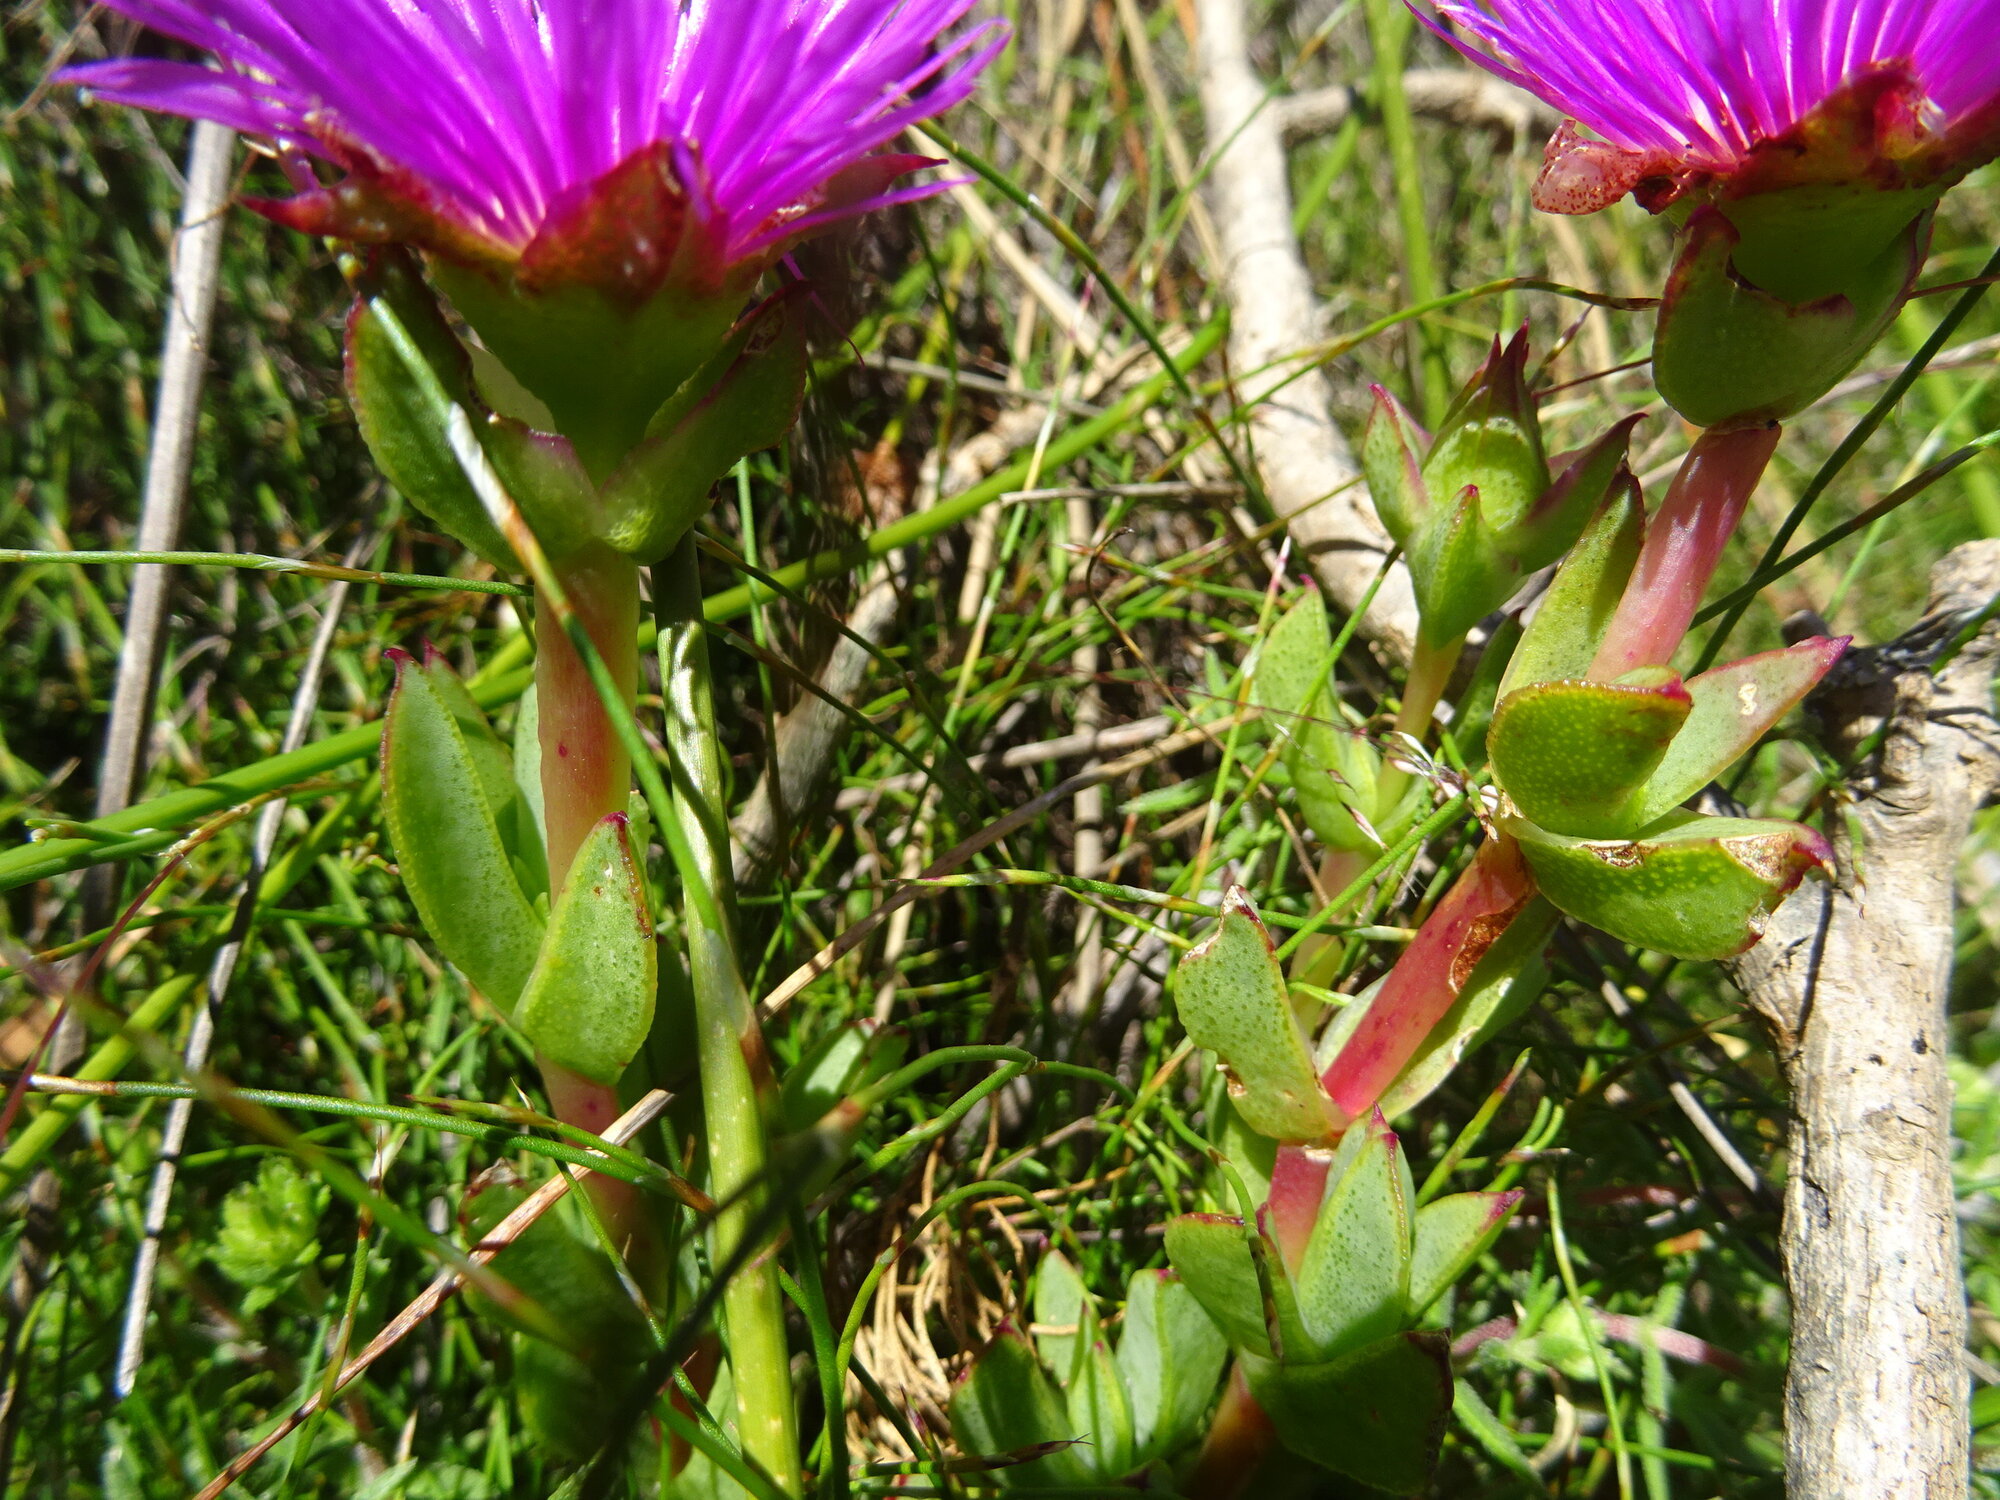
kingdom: Plantae
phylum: Tracheophyta
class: Magnoliopsida
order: Caryophyllales
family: Aizoaceae
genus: Erepsia
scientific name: Erepsia forficata
